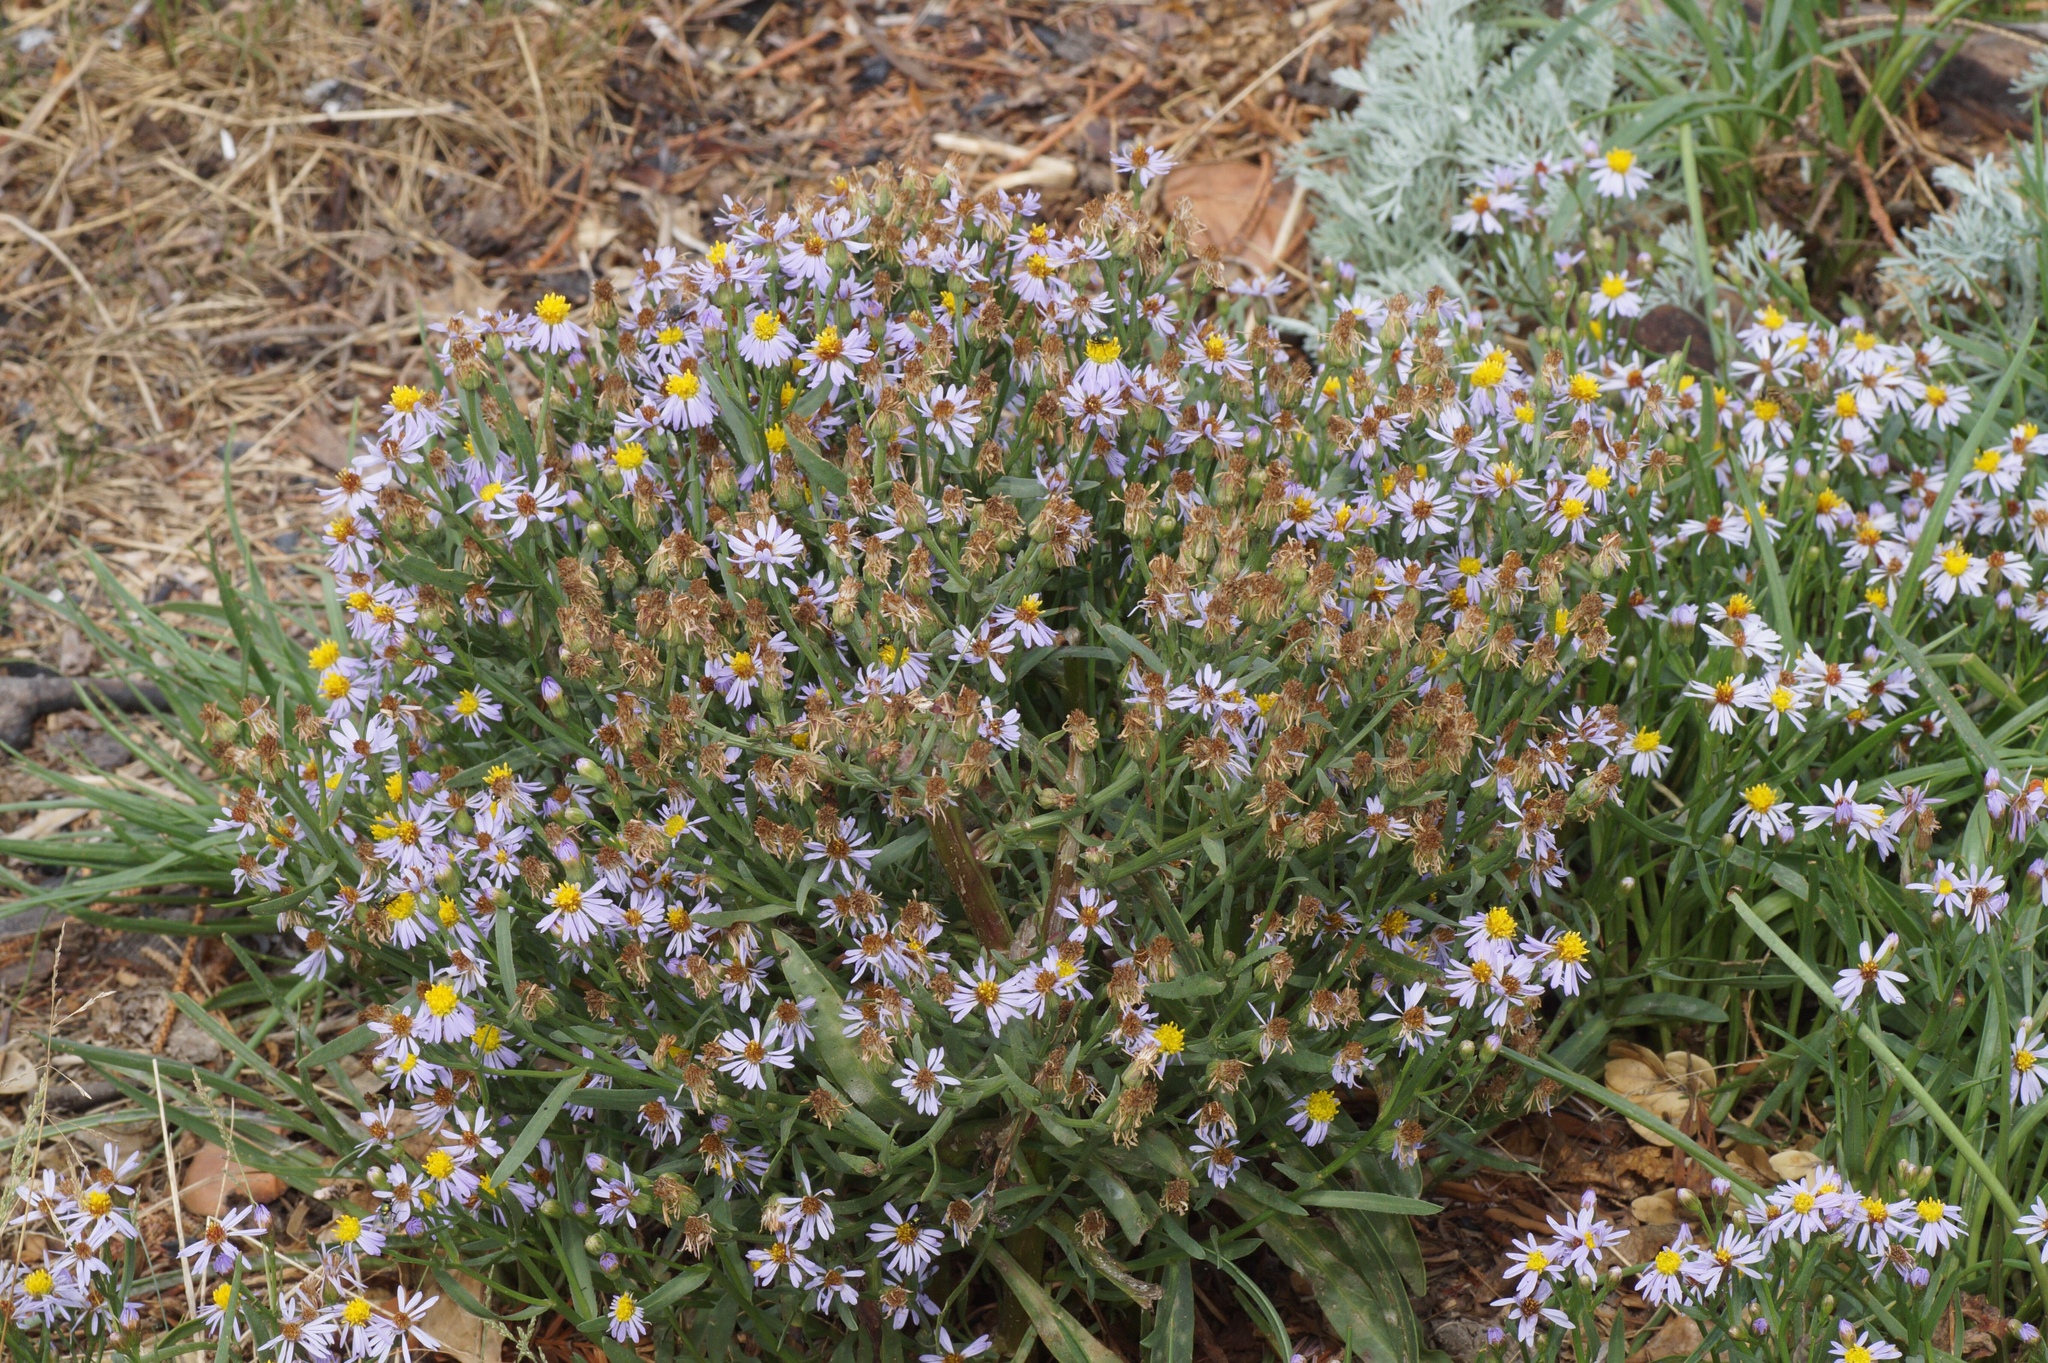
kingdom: Plantae
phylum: Tracheophyta
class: Magnoliopsida
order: Asterales
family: Asteraceae
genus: Tripolium
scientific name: Tripolium pannonicum
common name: Sea aster
